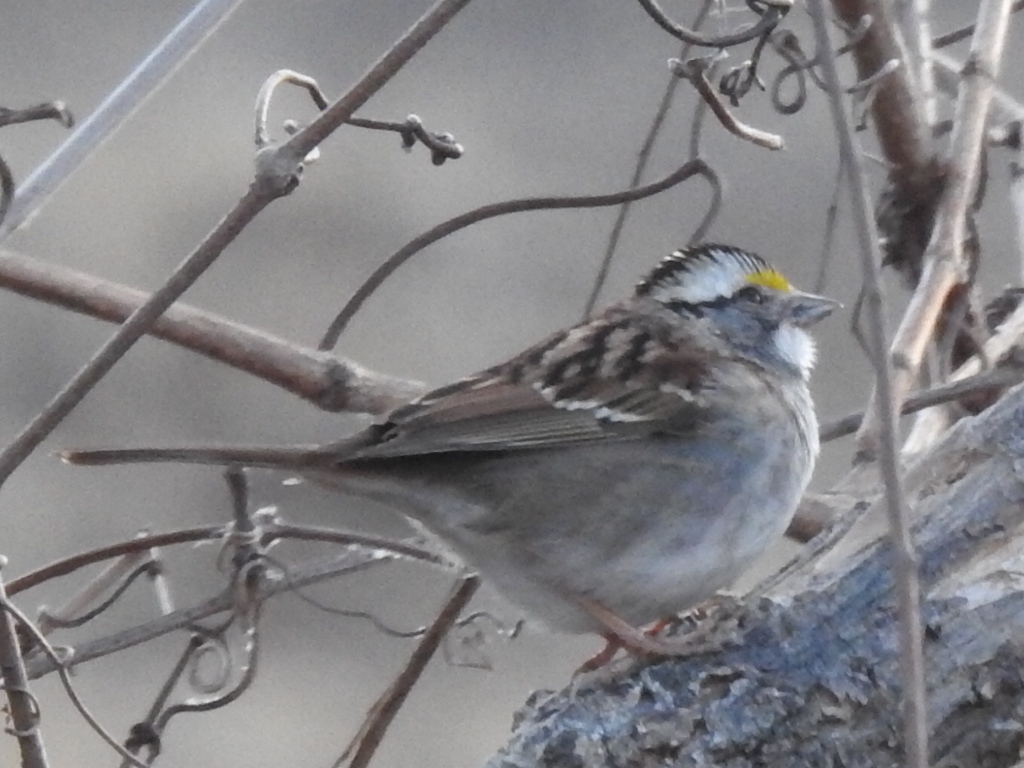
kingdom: Animalia
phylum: Chordata
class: Aves
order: Passeriformes
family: Passerellidae
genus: Zonotrichia
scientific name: Zonotrichia albicollis
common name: White-throated sparrow
